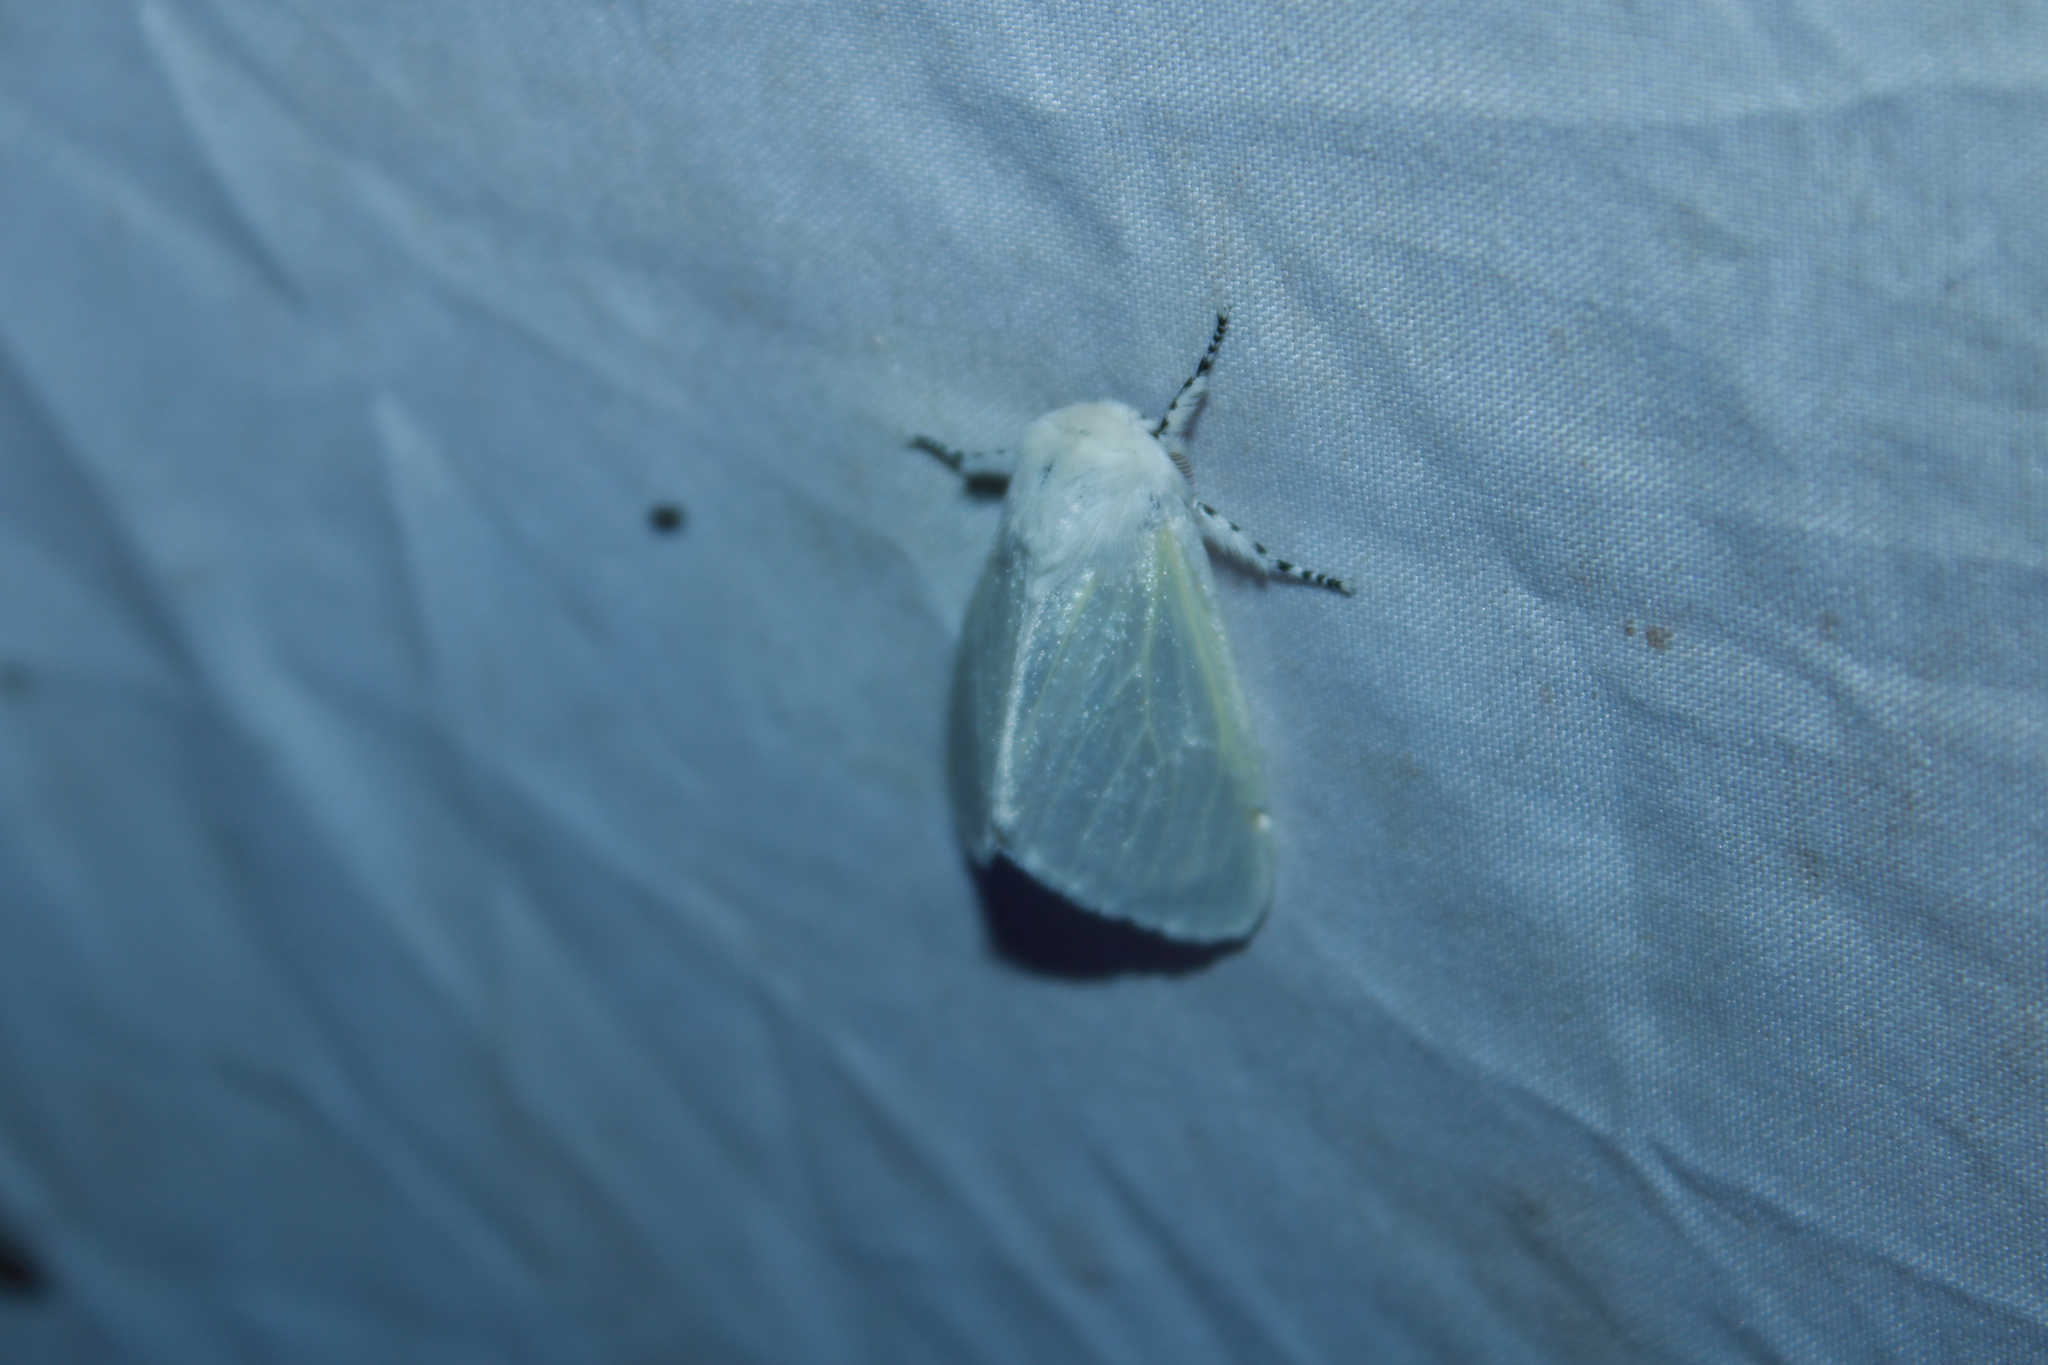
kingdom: Animalia
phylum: Arthropoda
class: Insecta
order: Lepidoptera
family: Erebidae
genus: Leucoma
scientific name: Leucoma salicis
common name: White satin moth
